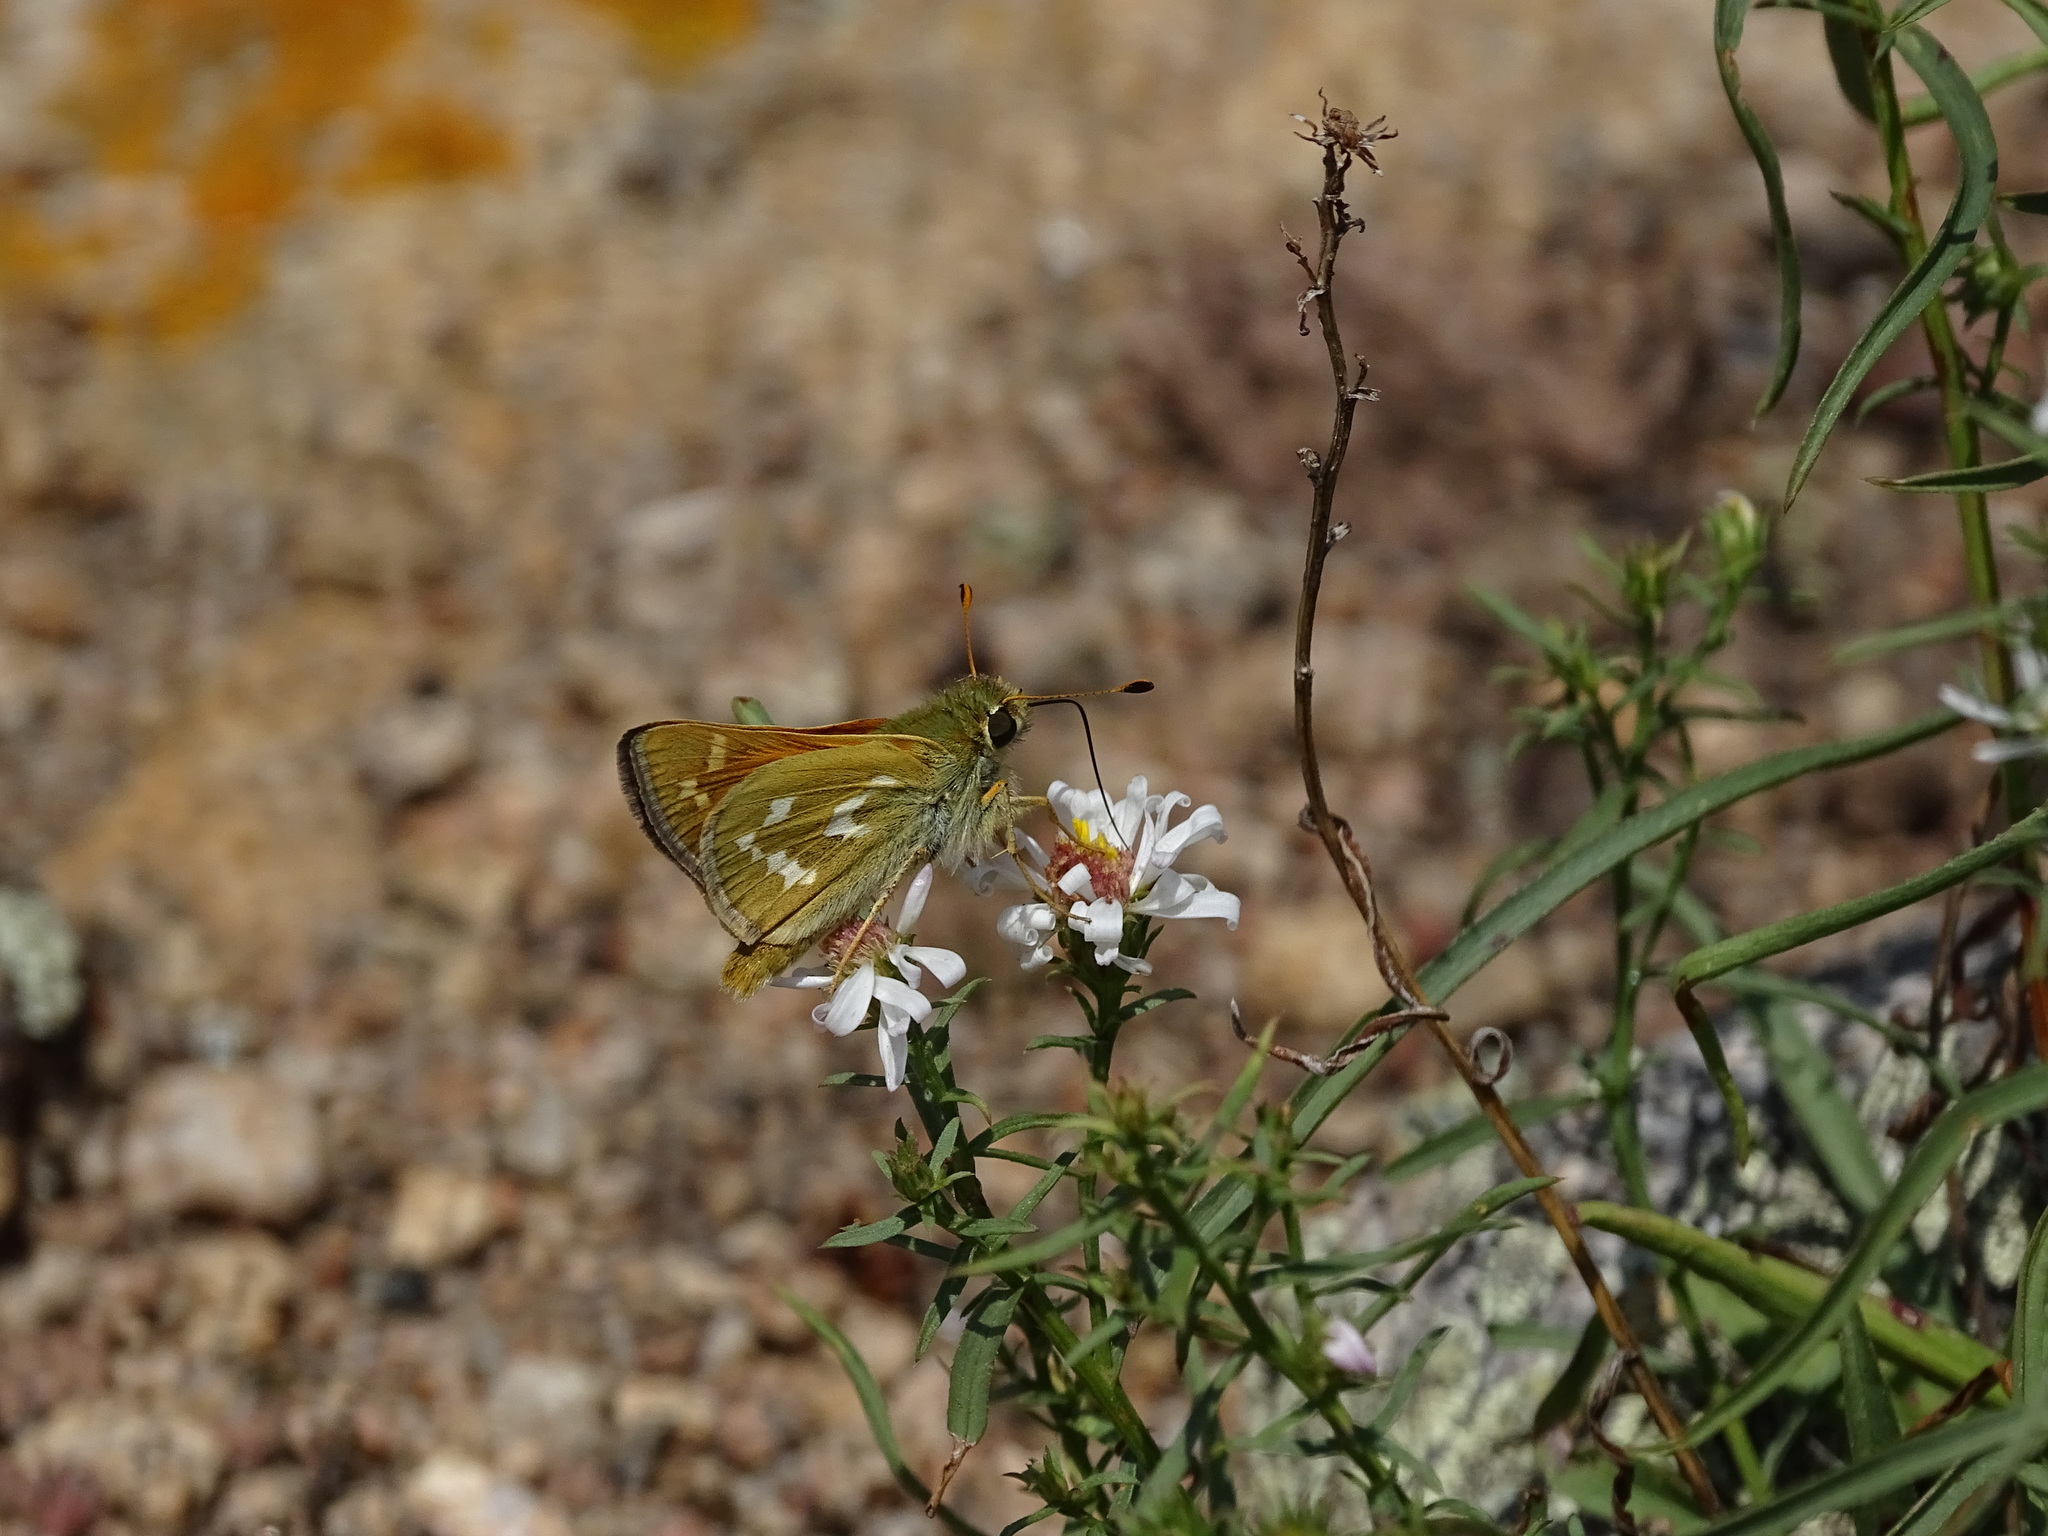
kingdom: Animalia
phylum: Arthropoda
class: Insecta
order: Lepidoptera
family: Hesperiidae
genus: Hesperia
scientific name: Hesperia comma
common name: Common branded skipper
